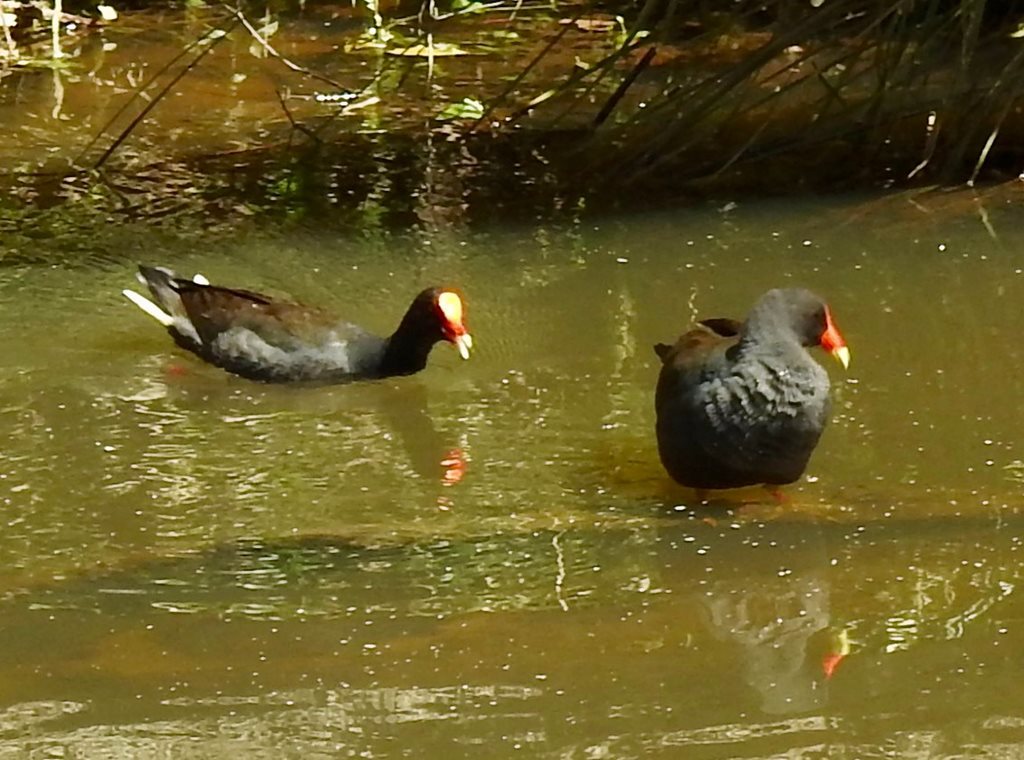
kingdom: Animalia
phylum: Chordata
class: Aves
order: Gruiformes
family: Rallidae
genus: Gallinula
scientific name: Gallinula tenebrosa
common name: Dusky moorhen
